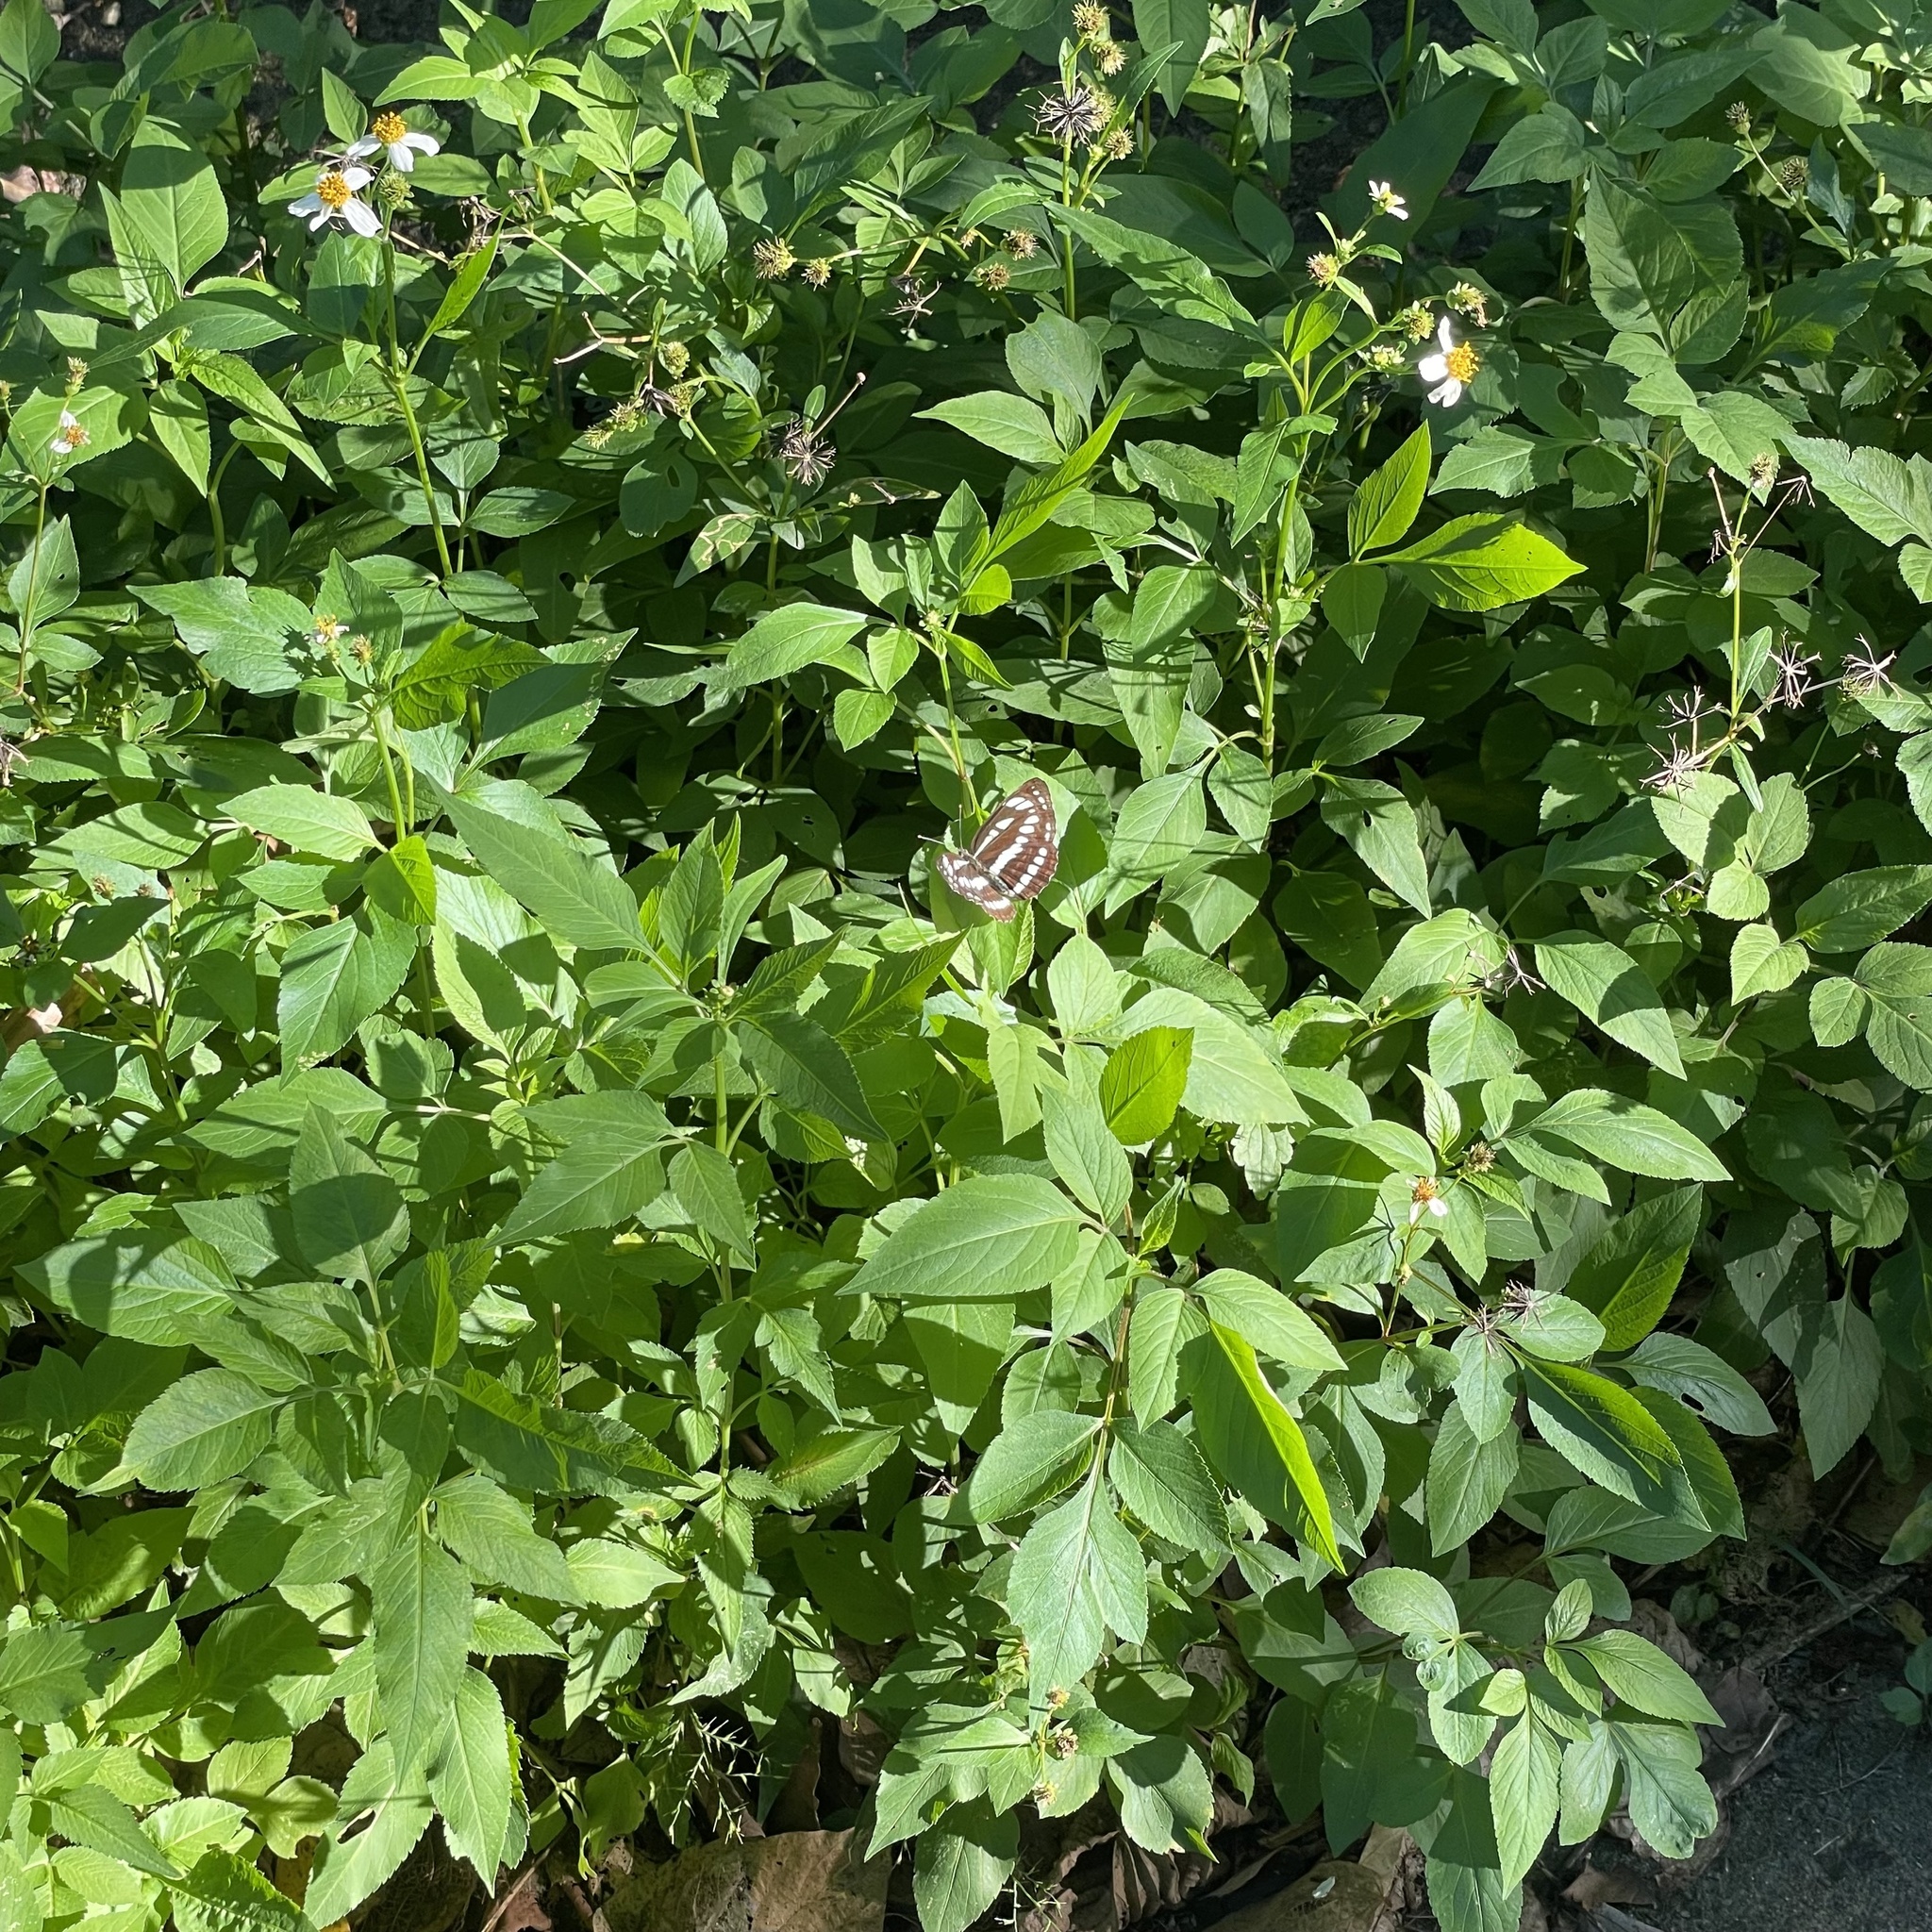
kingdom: Animalia
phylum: Arthropoda
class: Insecta
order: Lepidoptera
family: Nymphalidae
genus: Neptis
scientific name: Neptis hylas
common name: Common sailer
